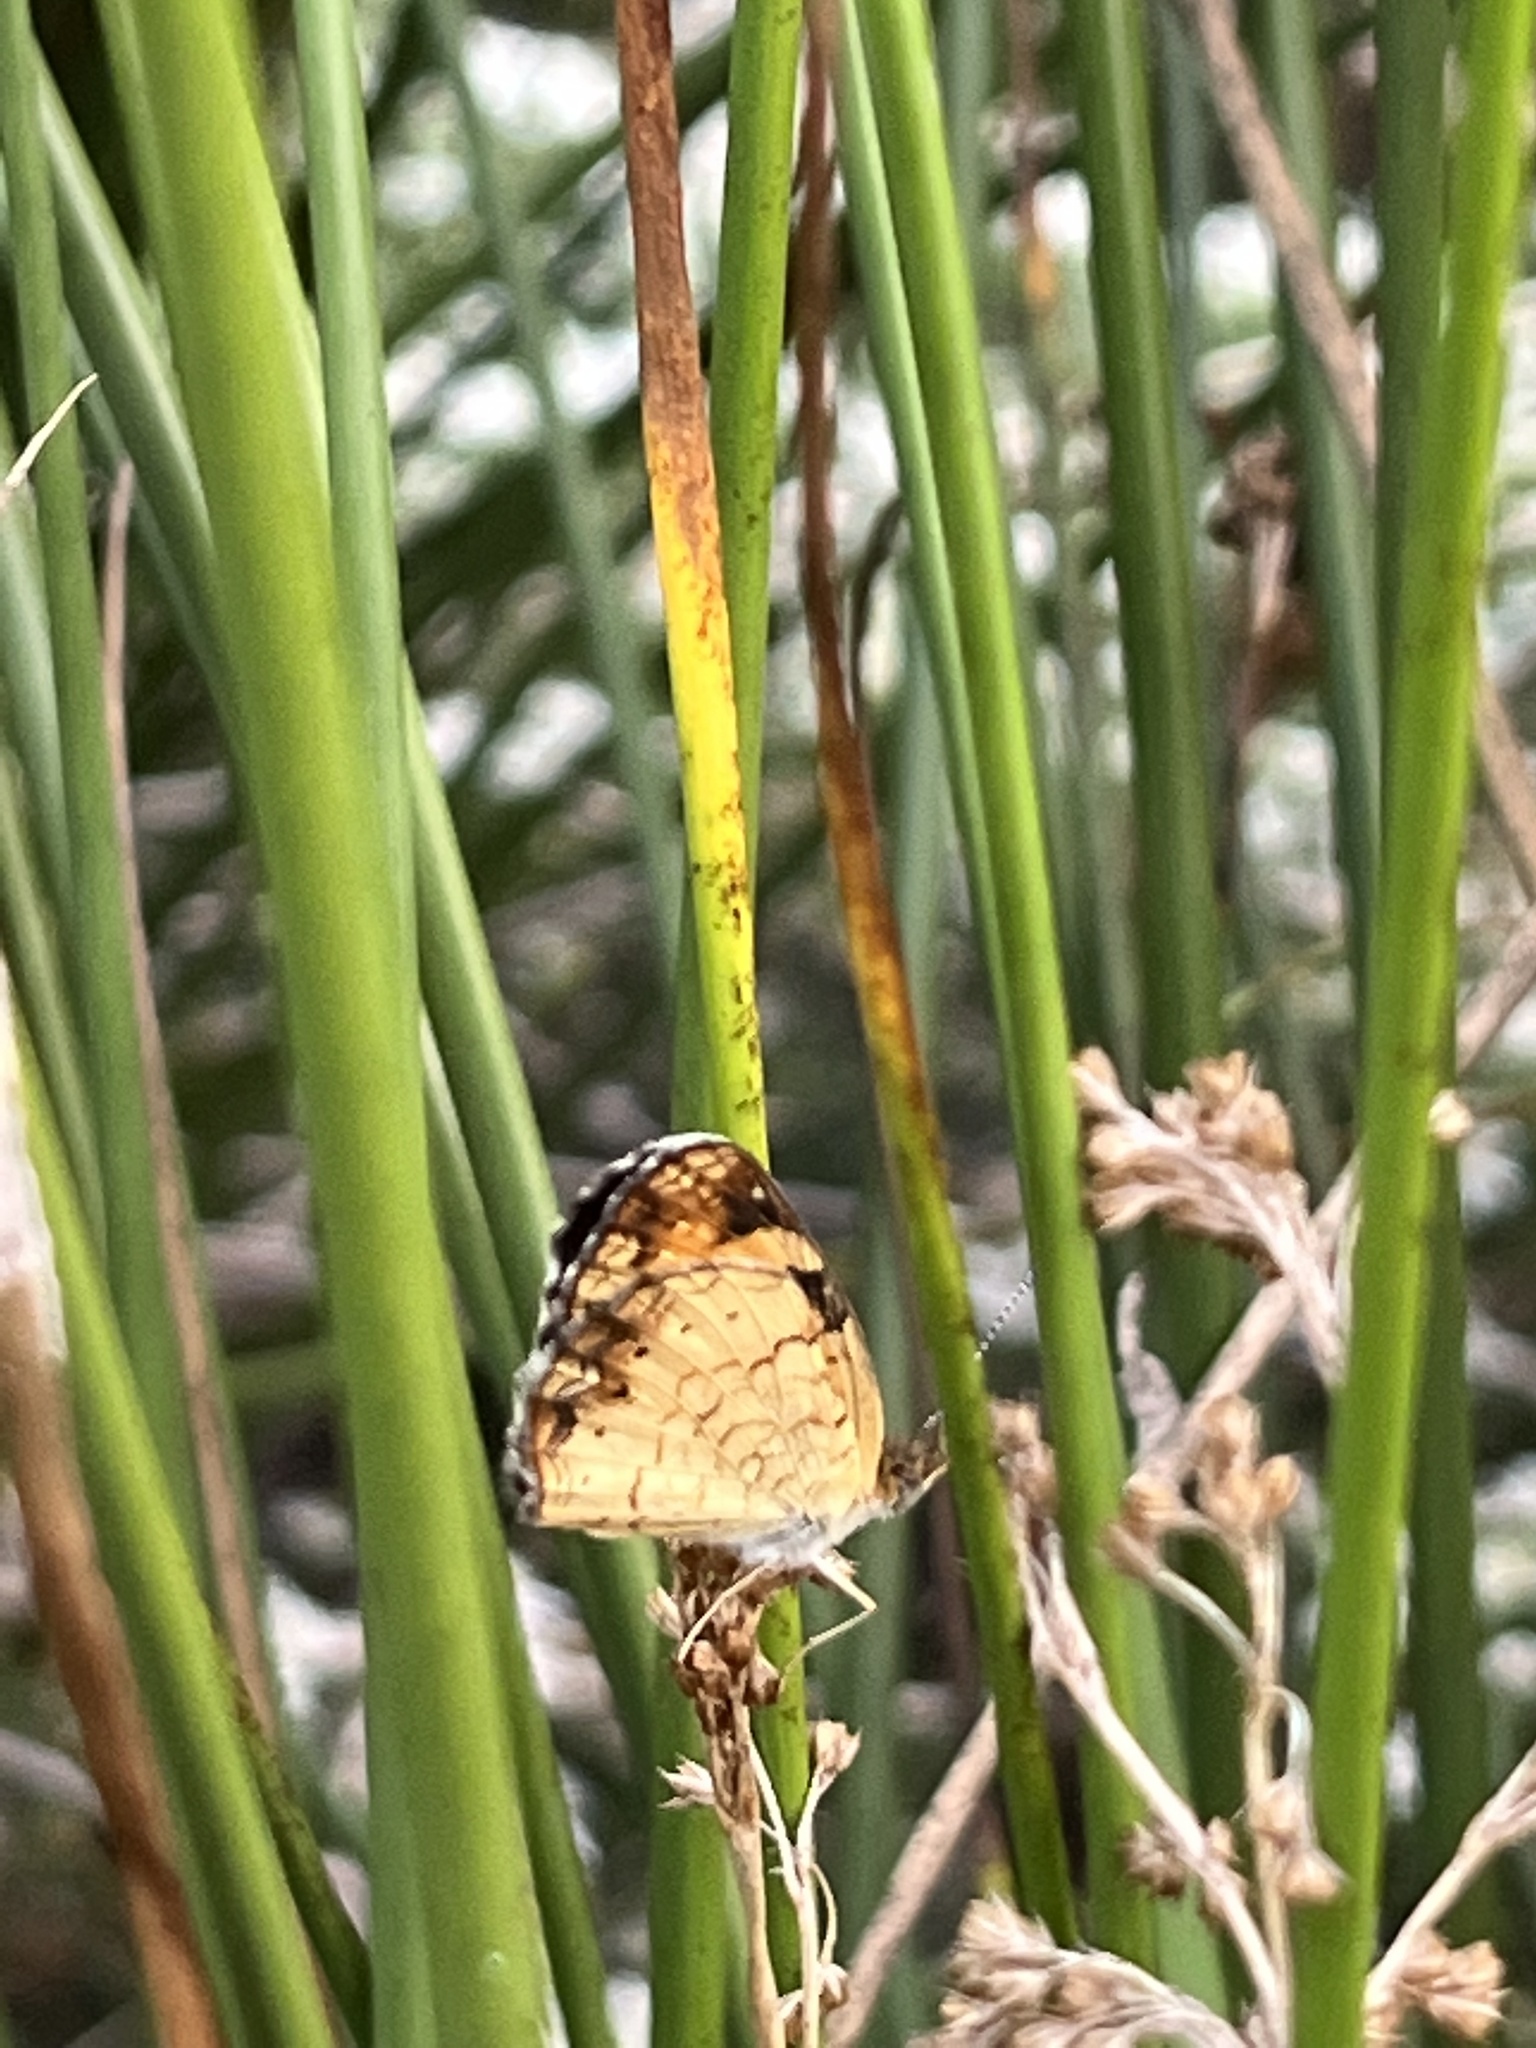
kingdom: Animalia
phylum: Arthropoda
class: Insecta
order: Lepidoptera
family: Nymphalidae
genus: Phyciodes
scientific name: Phyciodes tharos
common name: Pearl crescent
